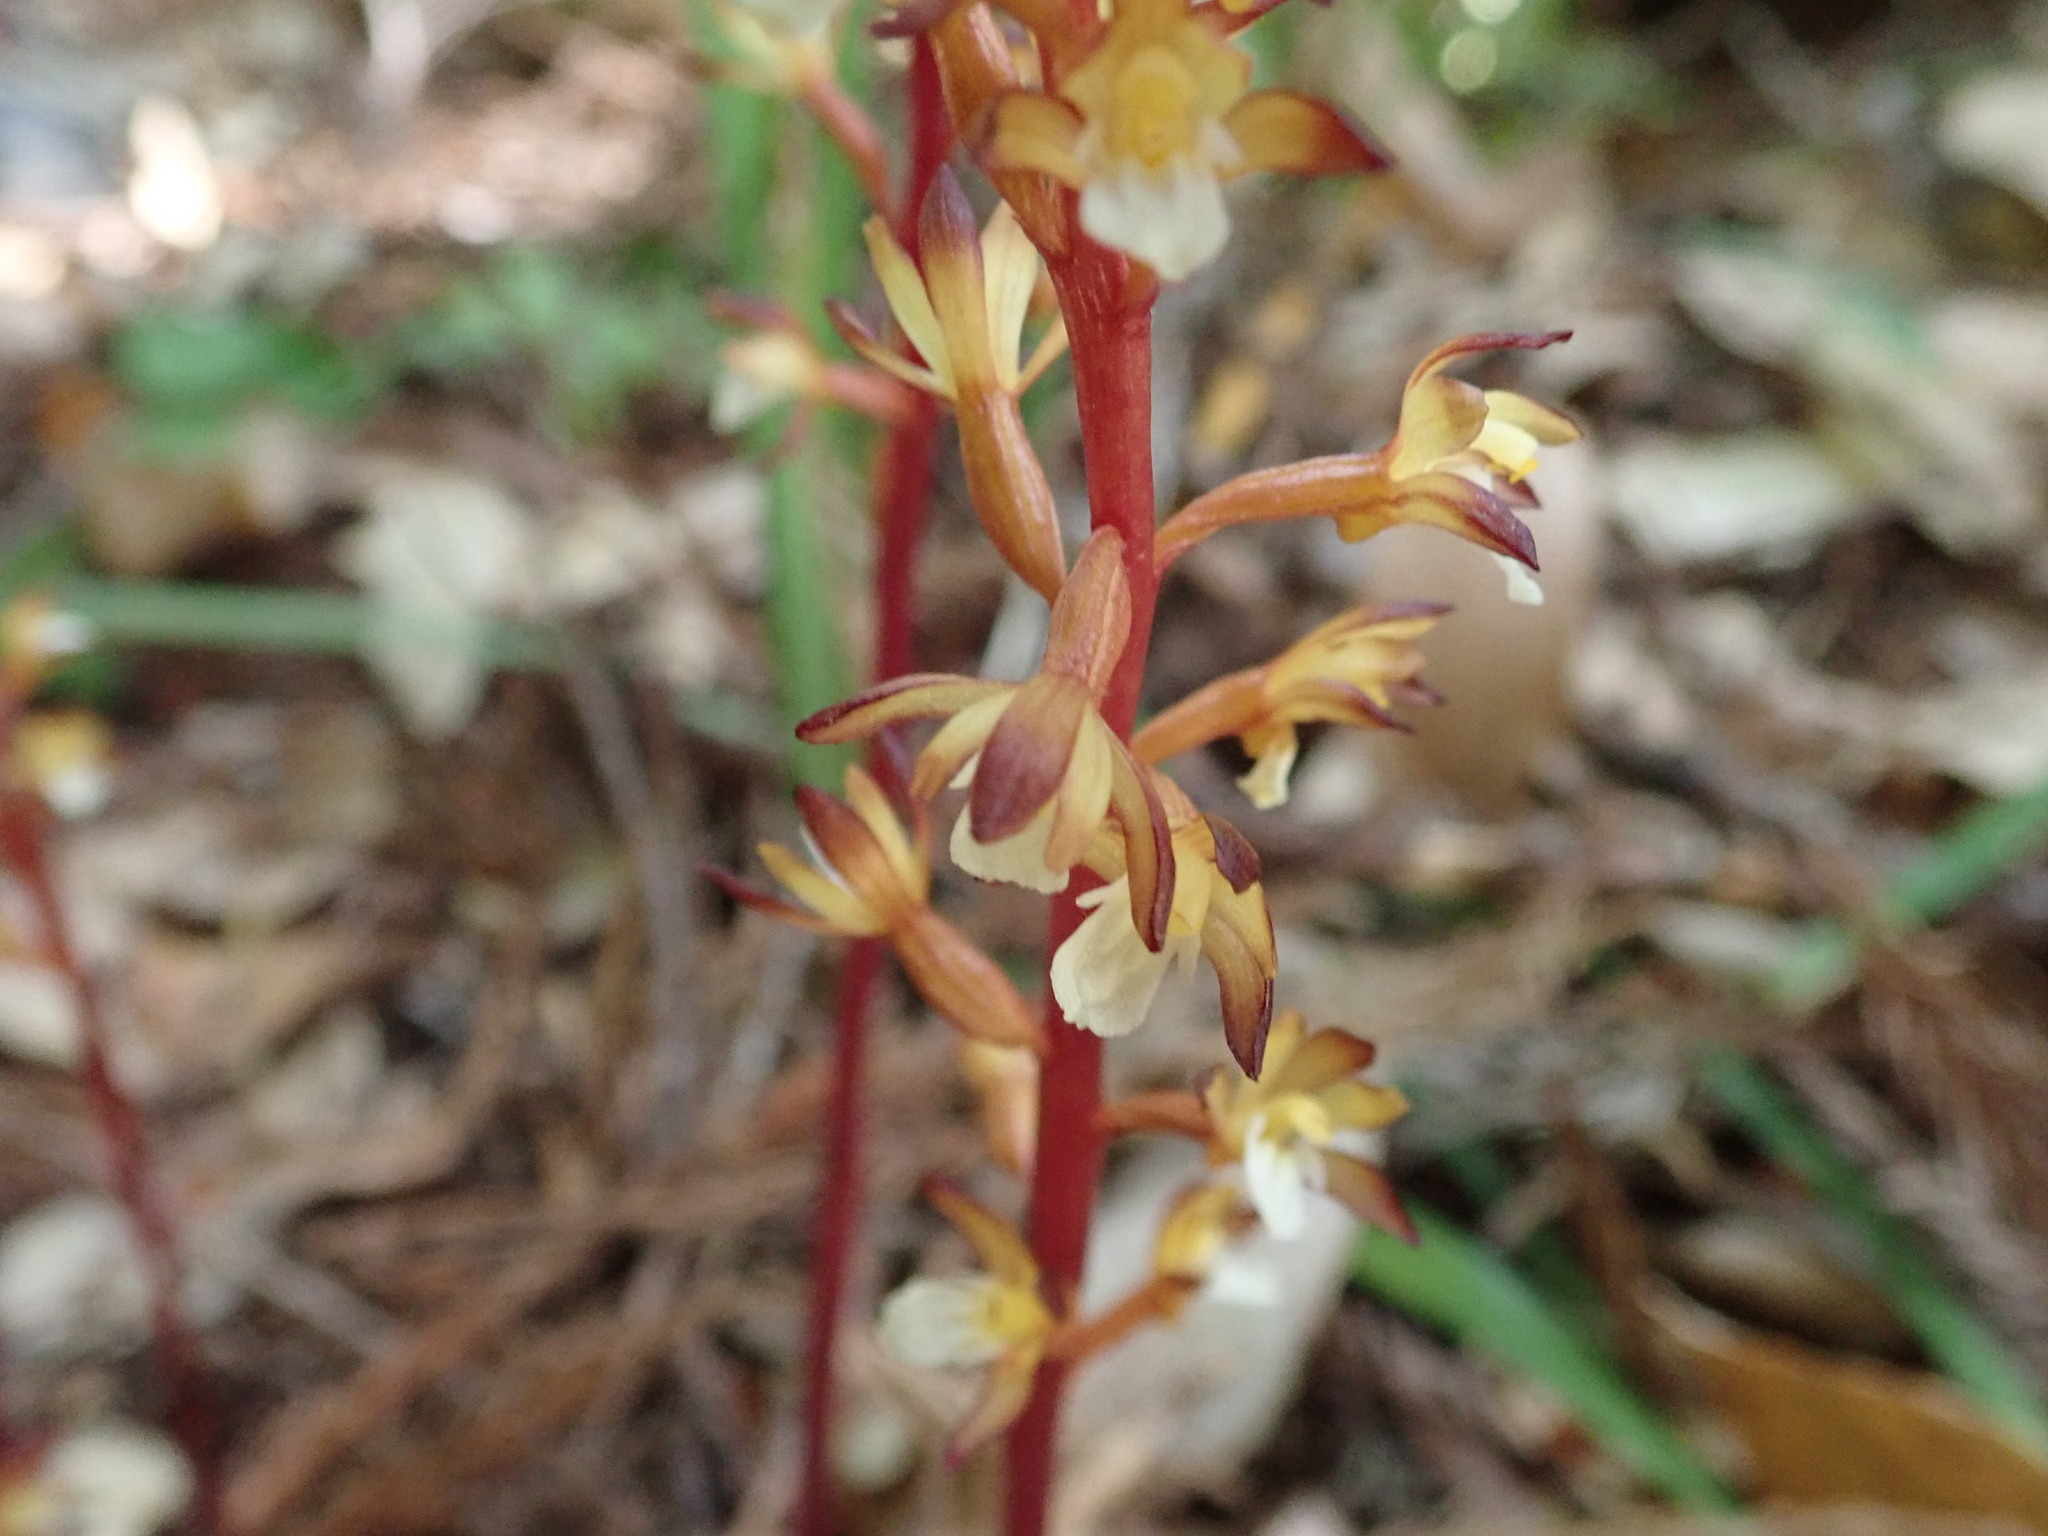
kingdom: Plantae
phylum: Tracheophyta
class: Liliopsida
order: Asparagales
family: Orchidaceae
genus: Corallorhiza
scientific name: Corallorhiza maculata
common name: Spotted coralroot
